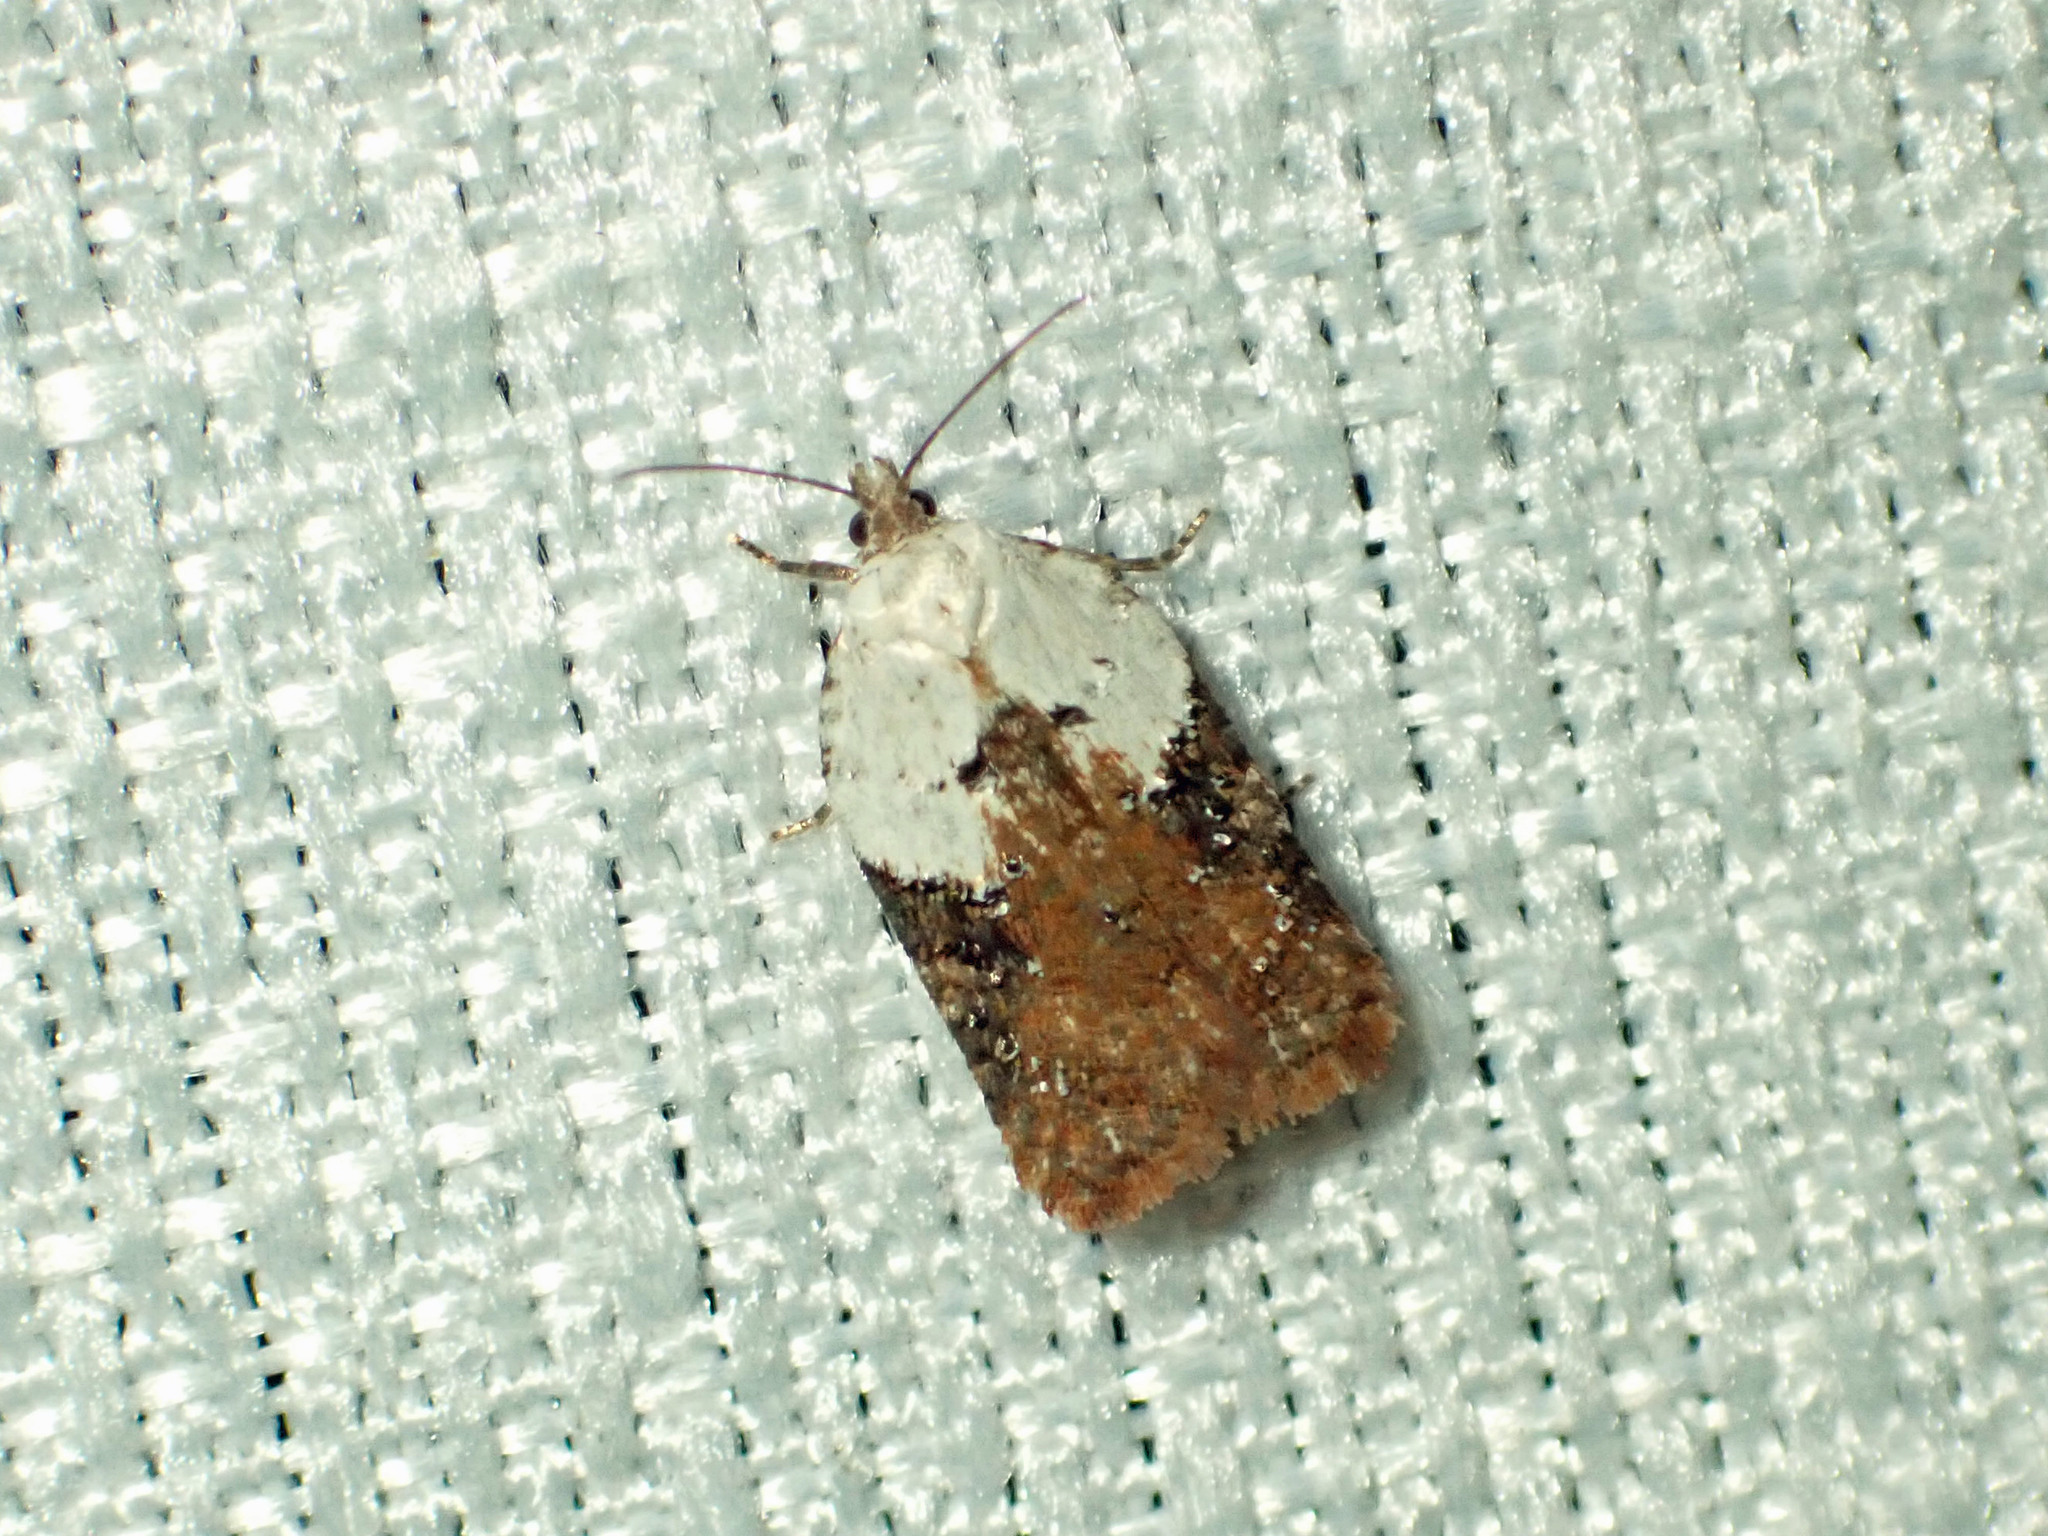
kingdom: Animalia
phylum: Arthropoda
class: Insecta
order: Lepidoptera
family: Tortricidae
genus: Acleris
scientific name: Acleris braunana
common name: Alder leafroller
